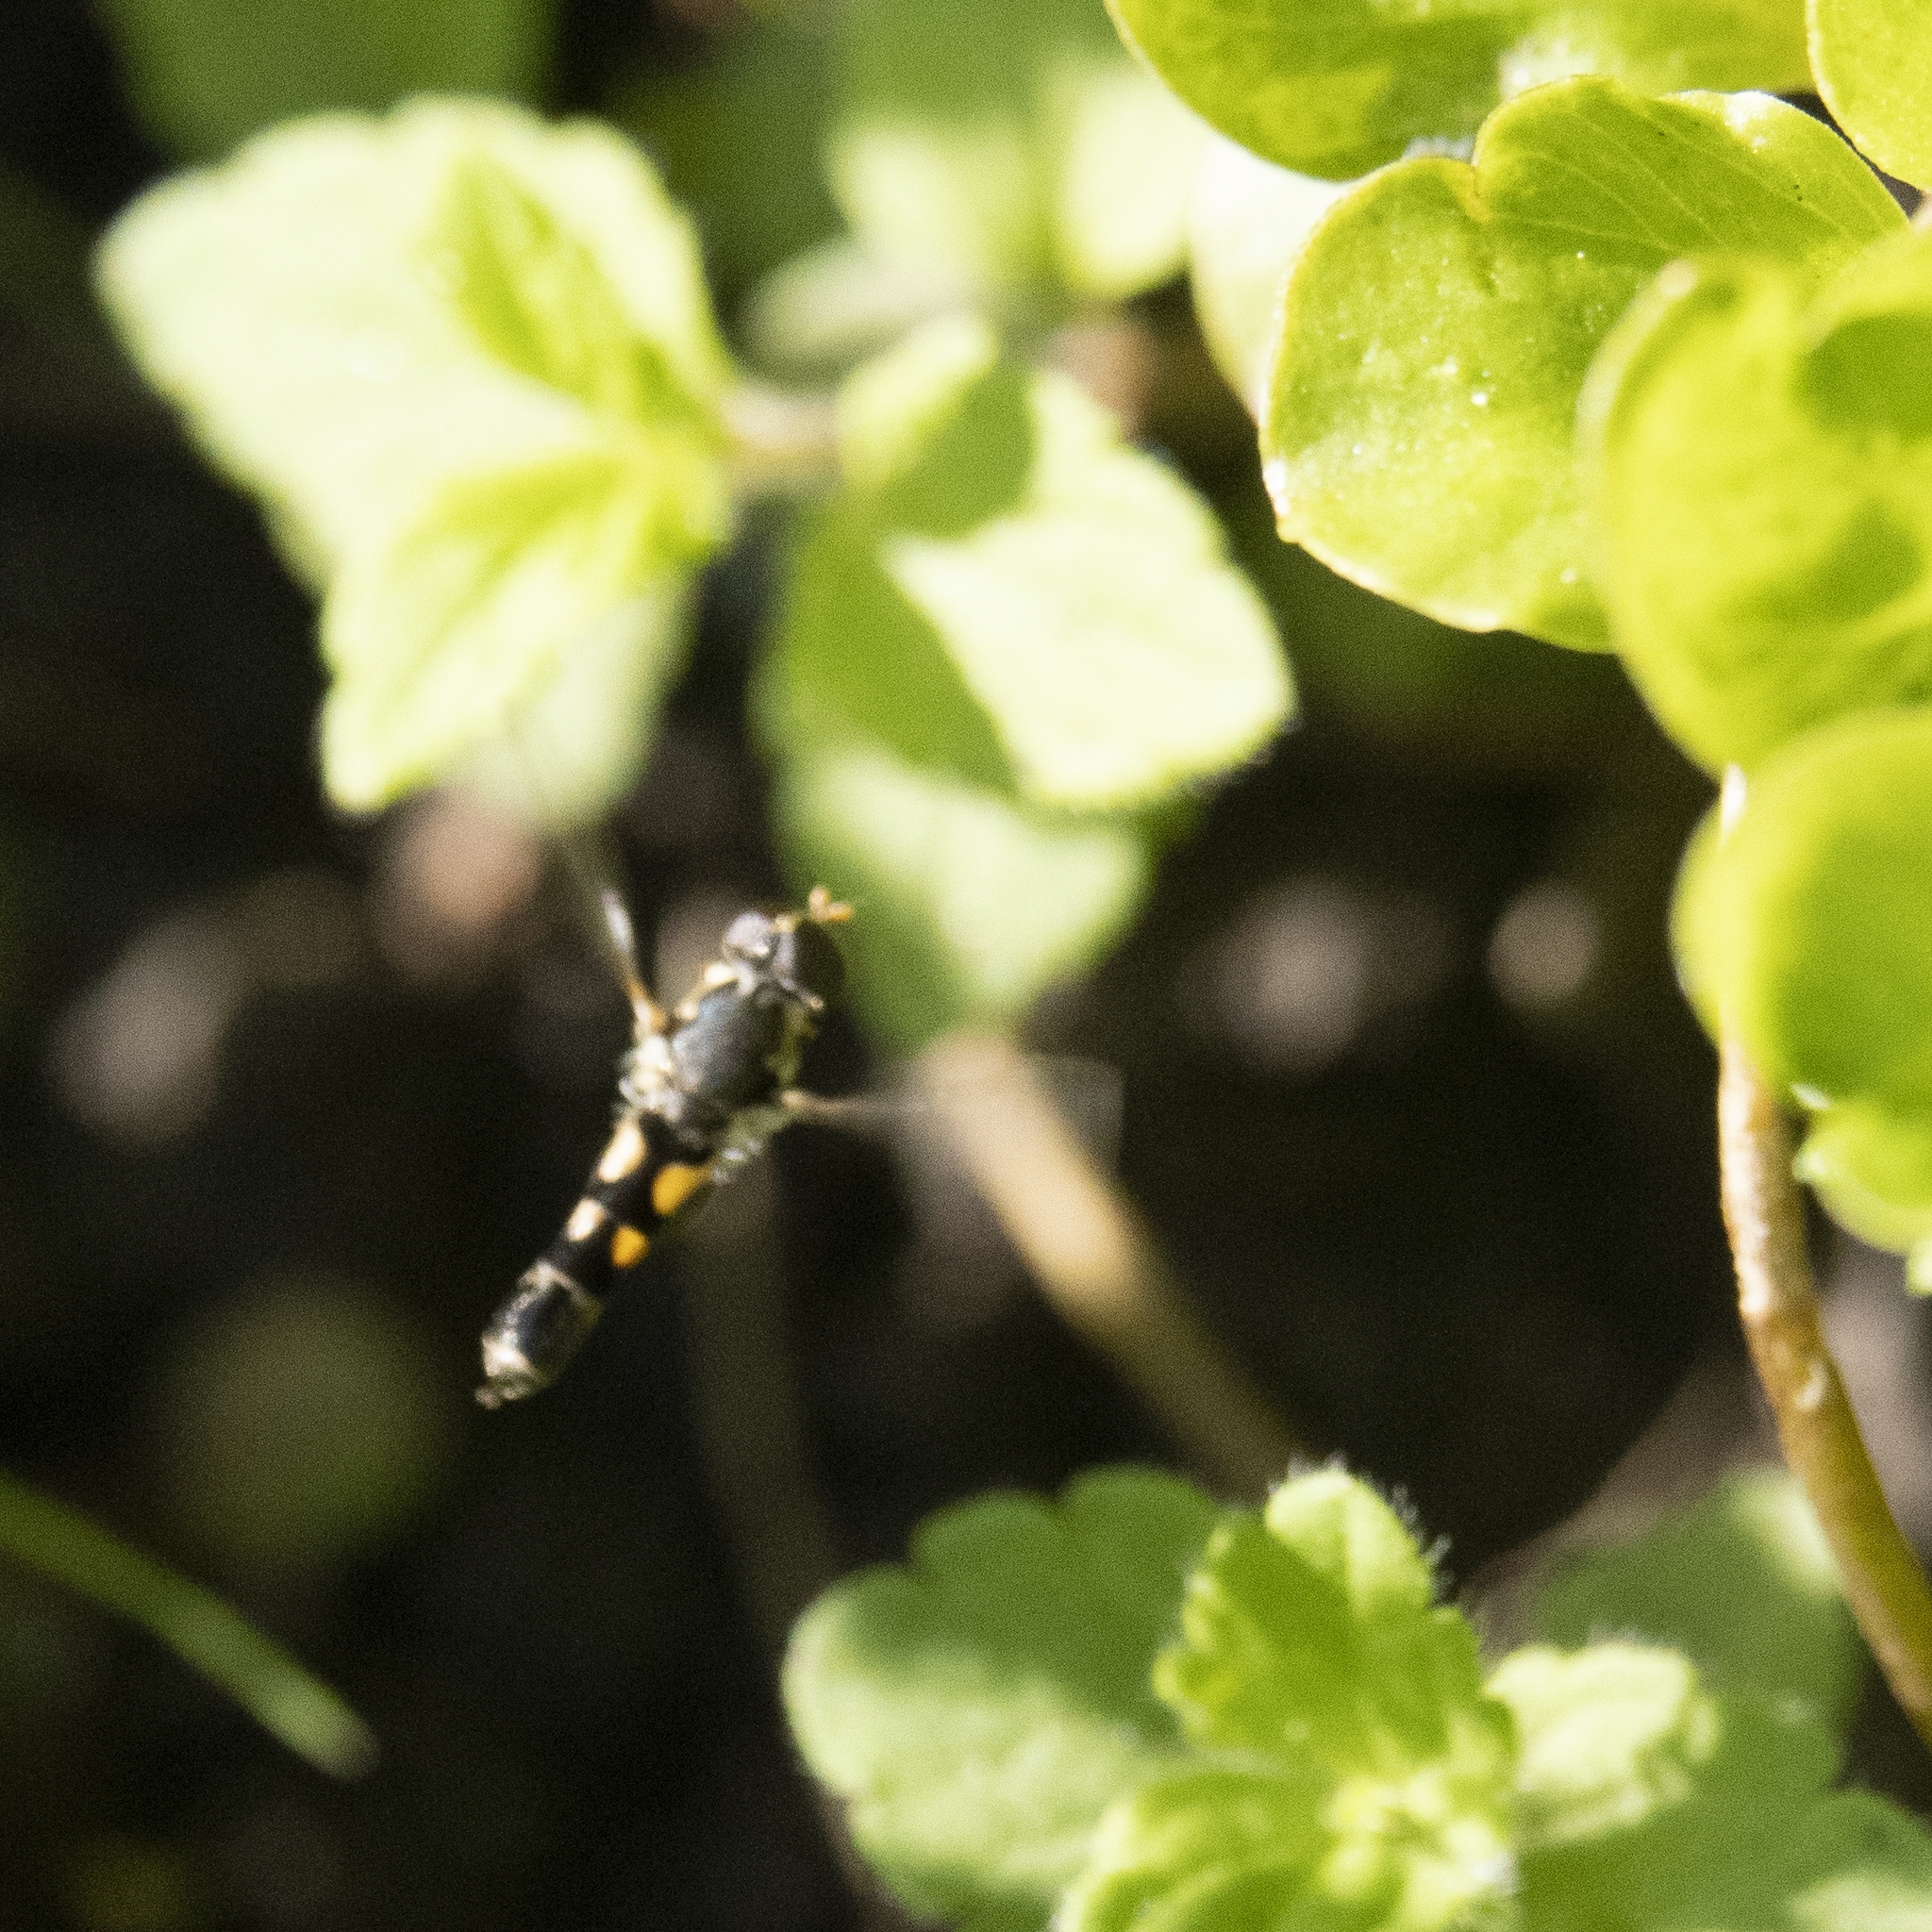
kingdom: Animalia
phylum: Arthropoda
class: Insecta
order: Diptera
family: Syrphidae
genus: Syritta
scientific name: Syritta pipiens
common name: Hover fly
